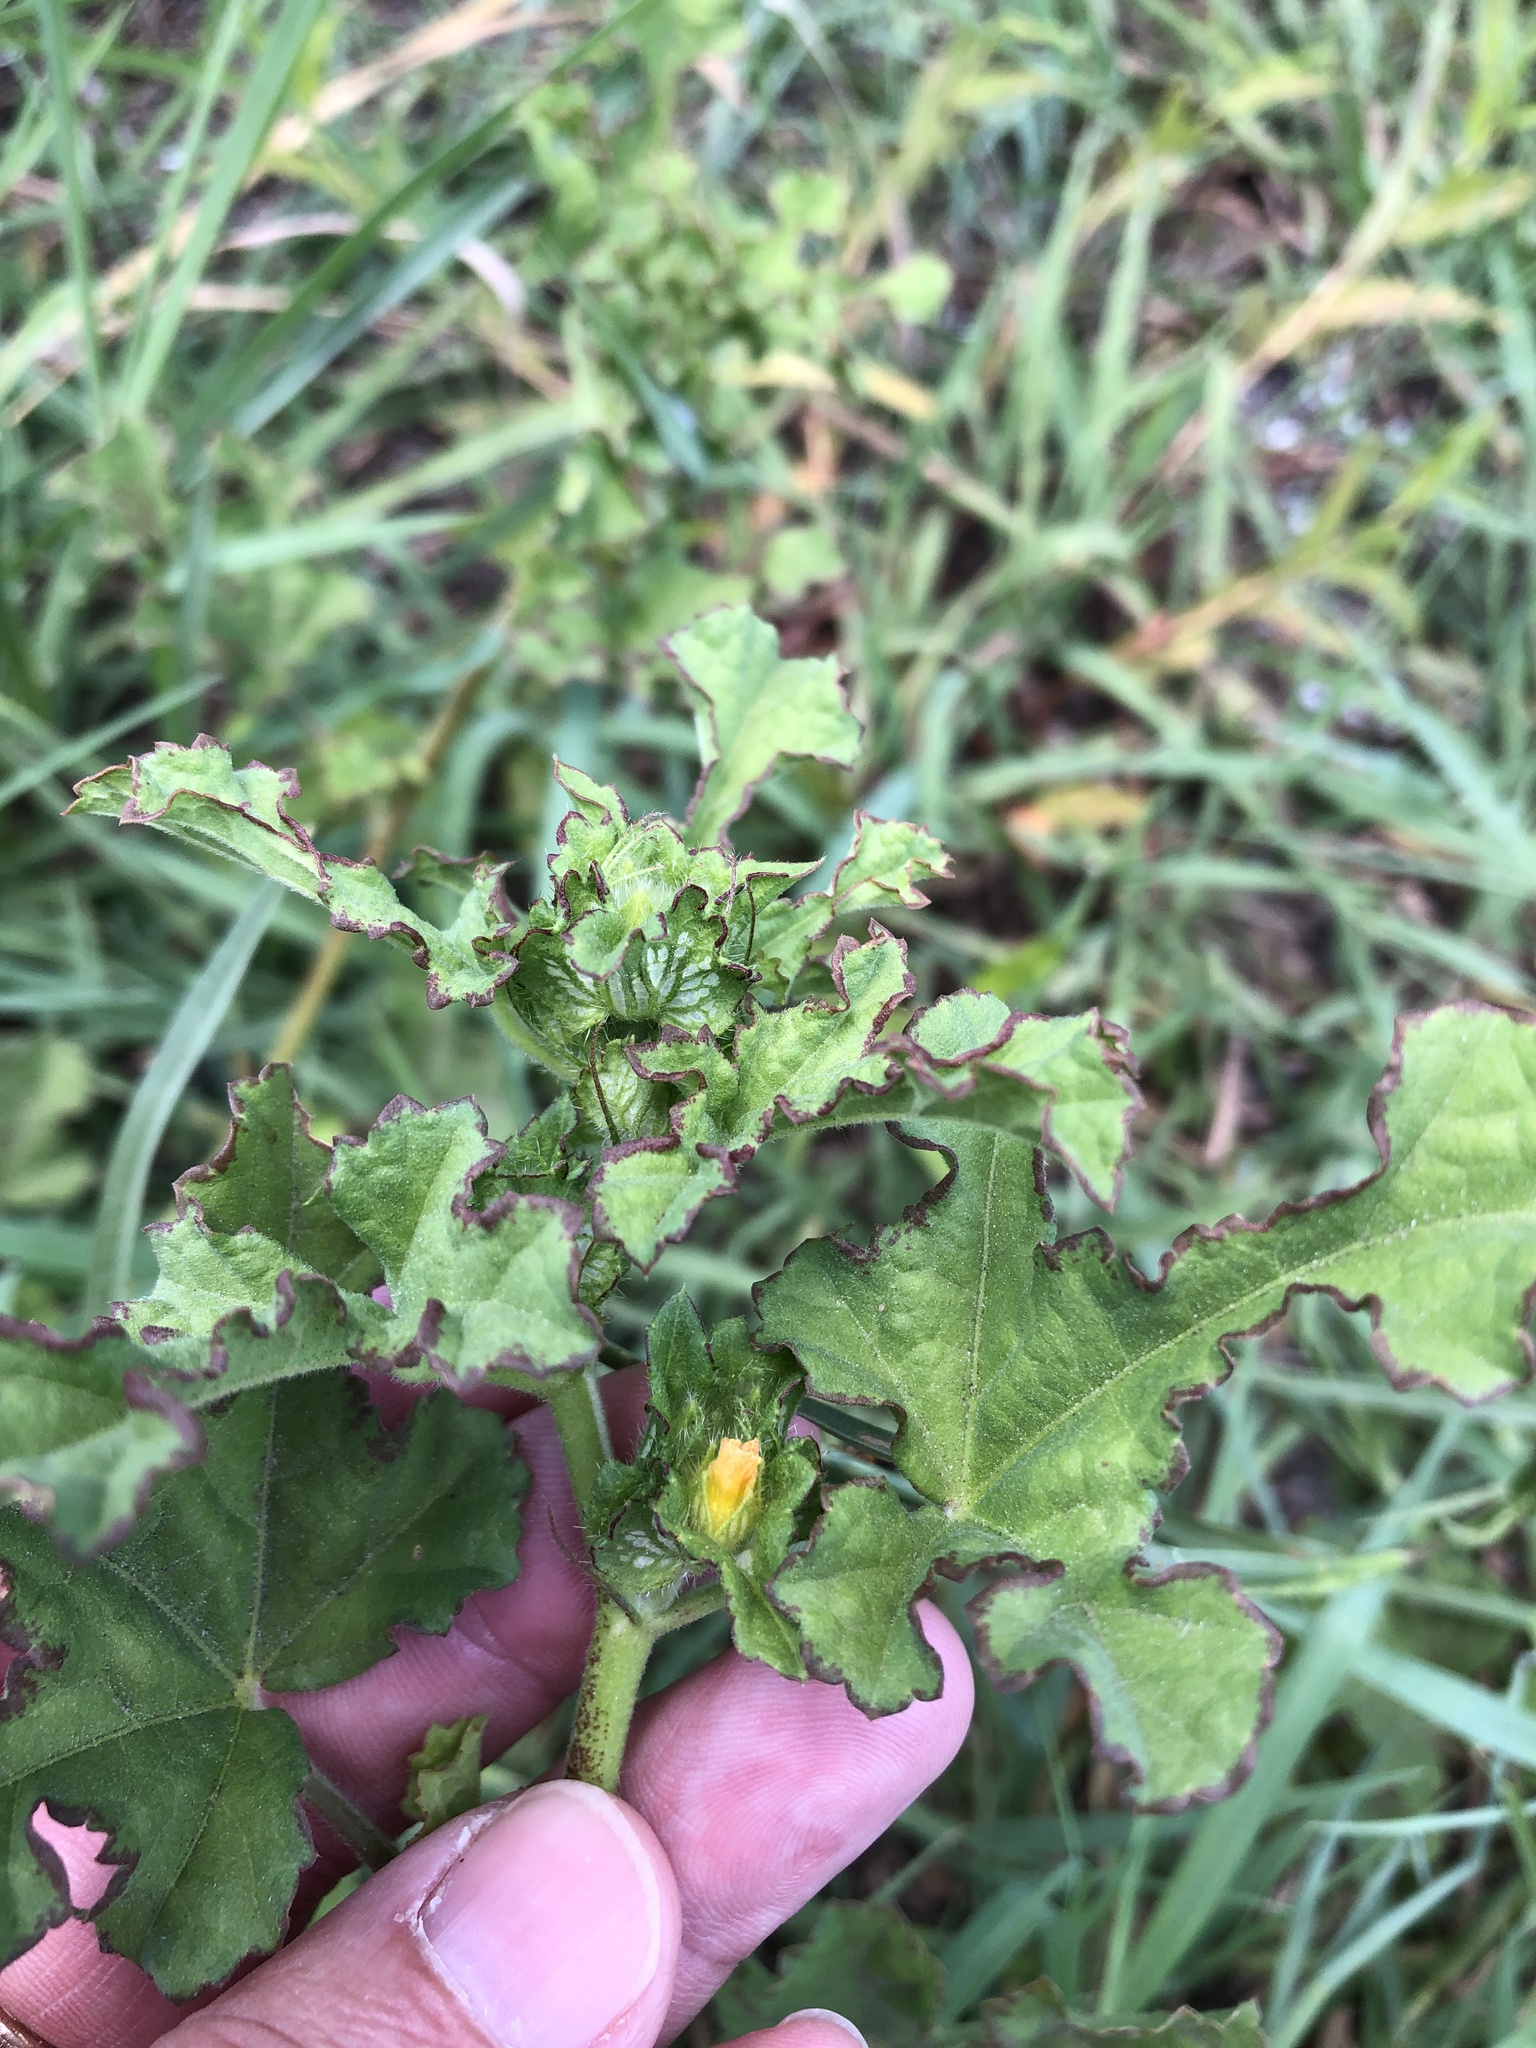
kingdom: Plantae
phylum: Tracheophyta
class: Magnoliopsida
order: Malvales
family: Malvaceae
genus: Malachra
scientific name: Malachra capitata
